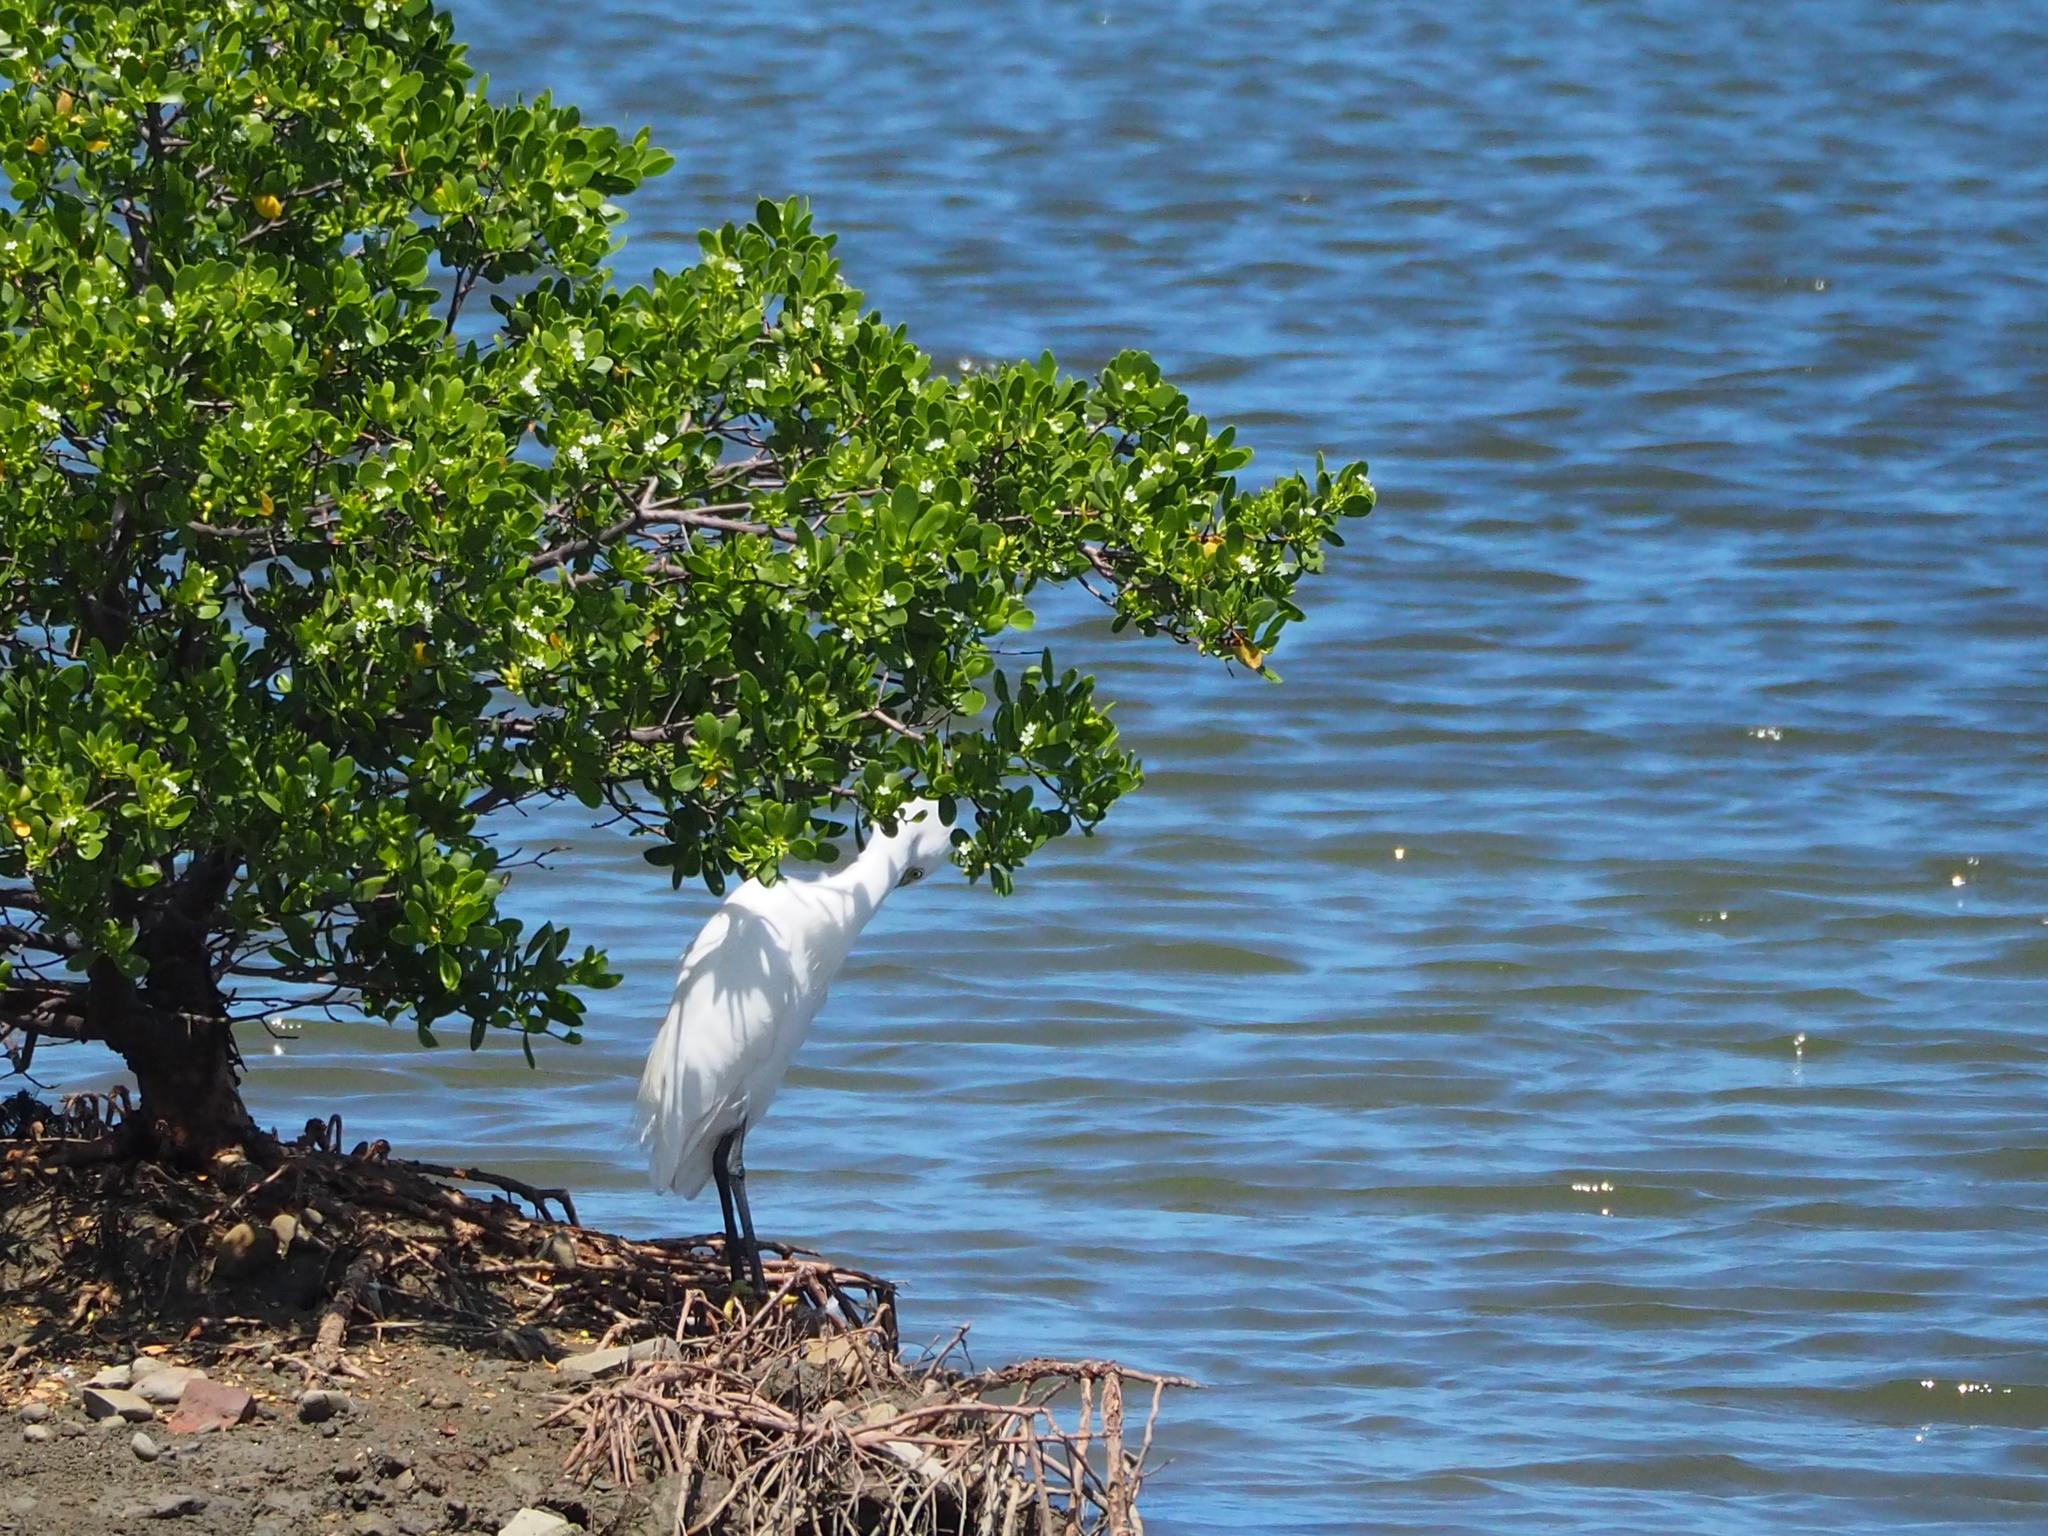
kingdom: Animalia
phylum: Chordata
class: Aves
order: Pelecaniformes
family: Ardeidae
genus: Egretta
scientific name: Egretta garzetta
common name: Little egret
